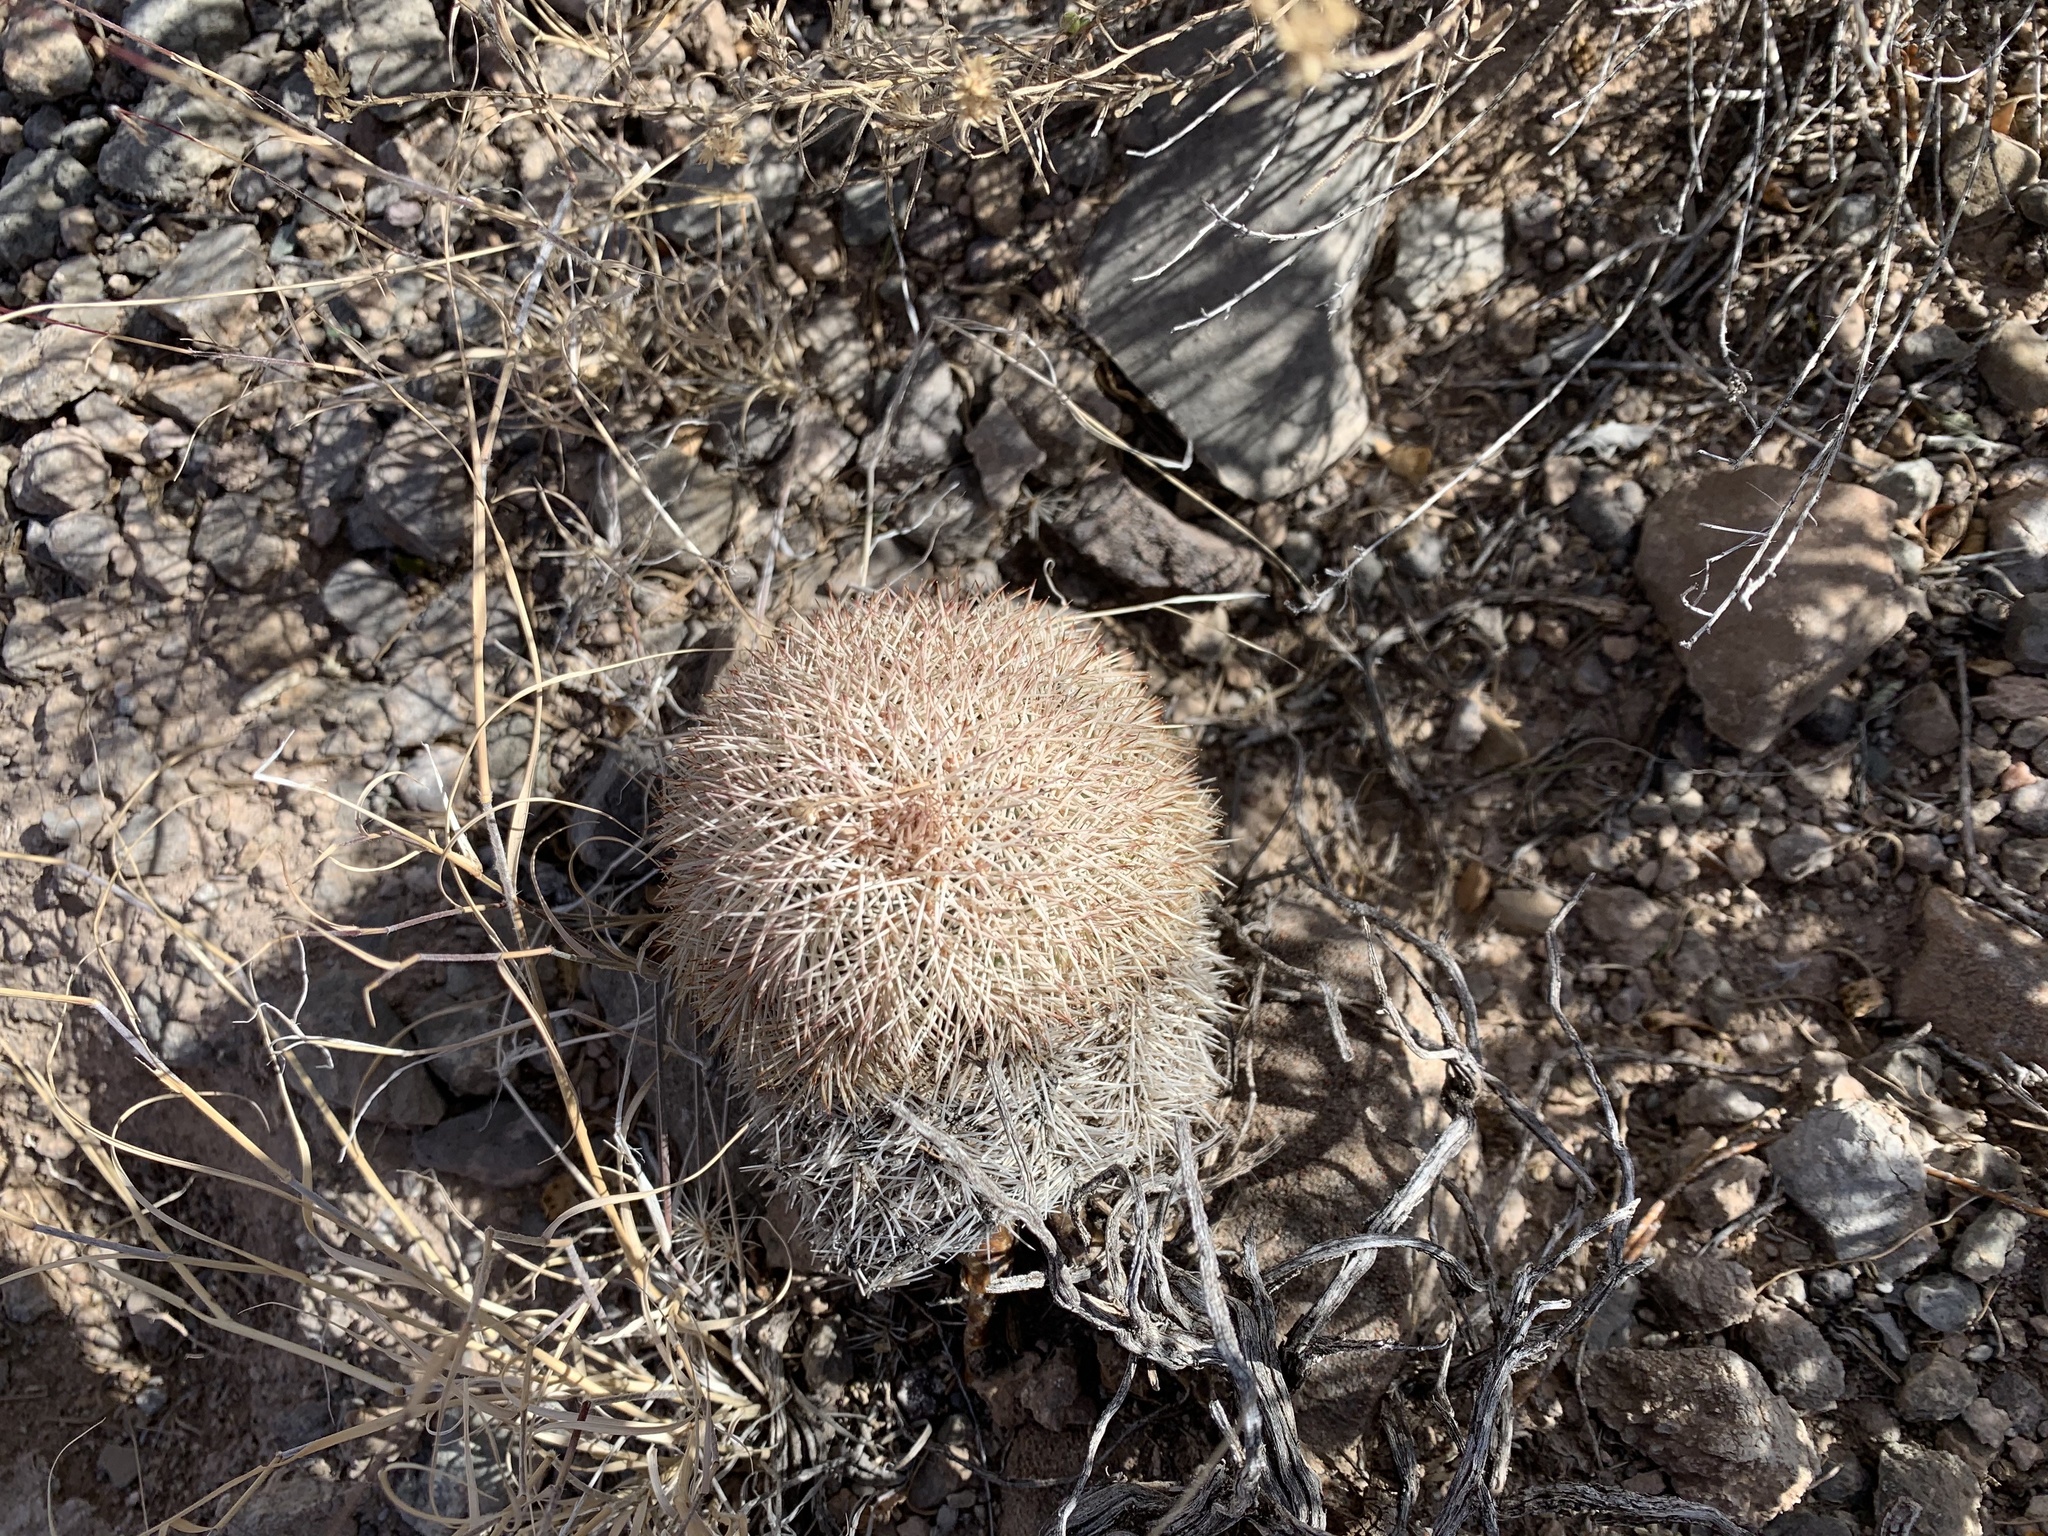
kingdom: Plantae
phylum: Tracheophyta
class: Magnoliopsida
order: Caryophyllales
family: Cactaceae
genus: Echinocereus
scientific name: Echinocereus dasyacanthus
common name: Spiny hedgehog cactus
